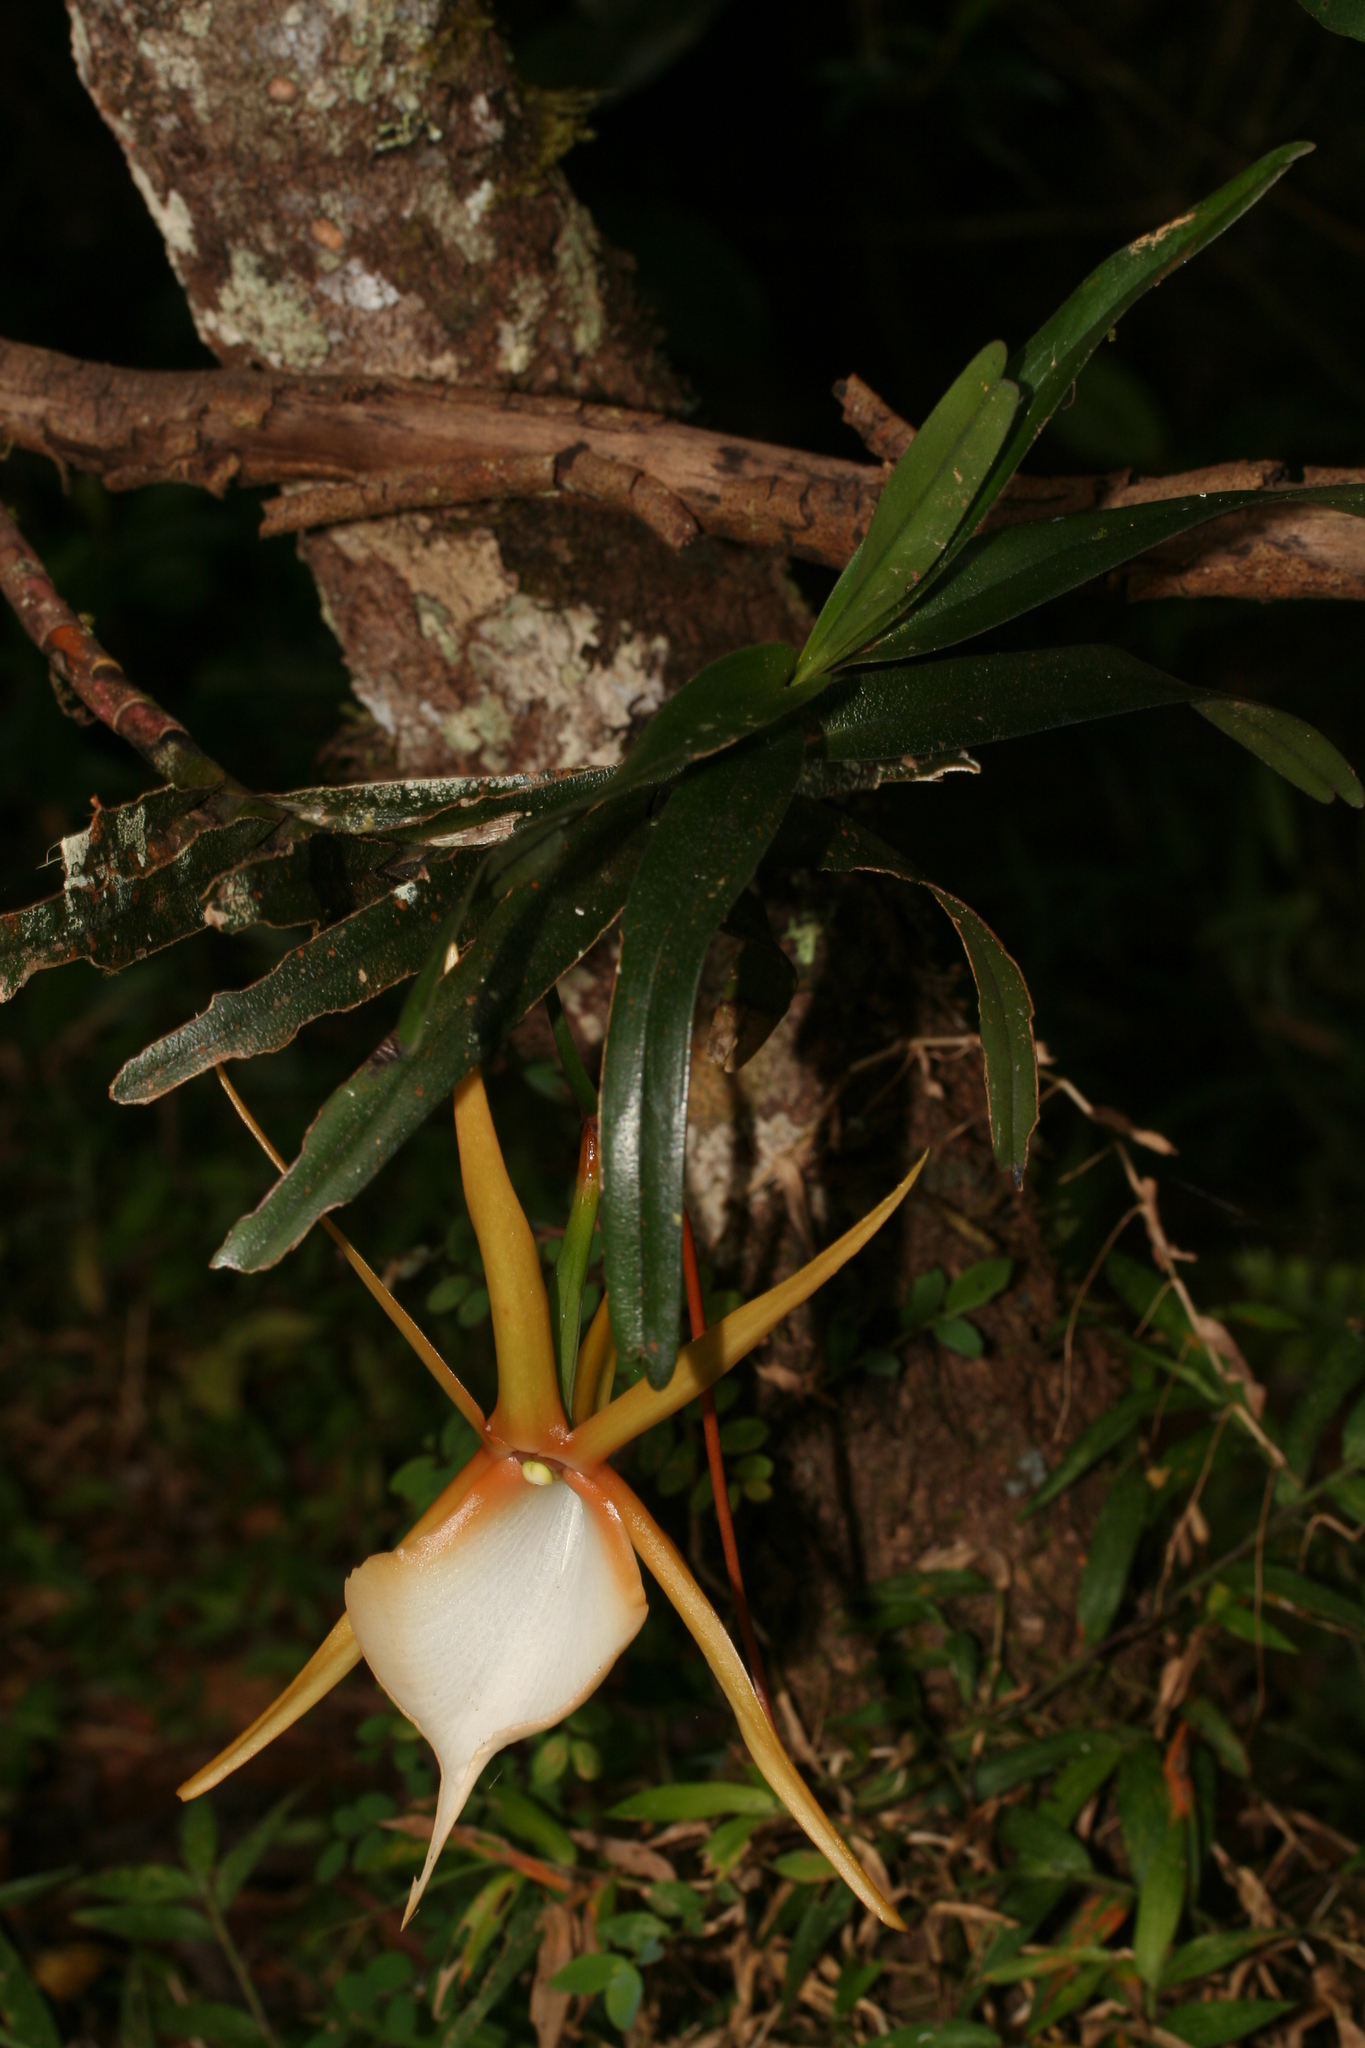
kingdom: Plantae
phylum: Tracheophyta
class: Liliopsida
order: Asparagales
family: Orchidaceae
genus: Angraecum
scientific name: Angraecum viguieri
